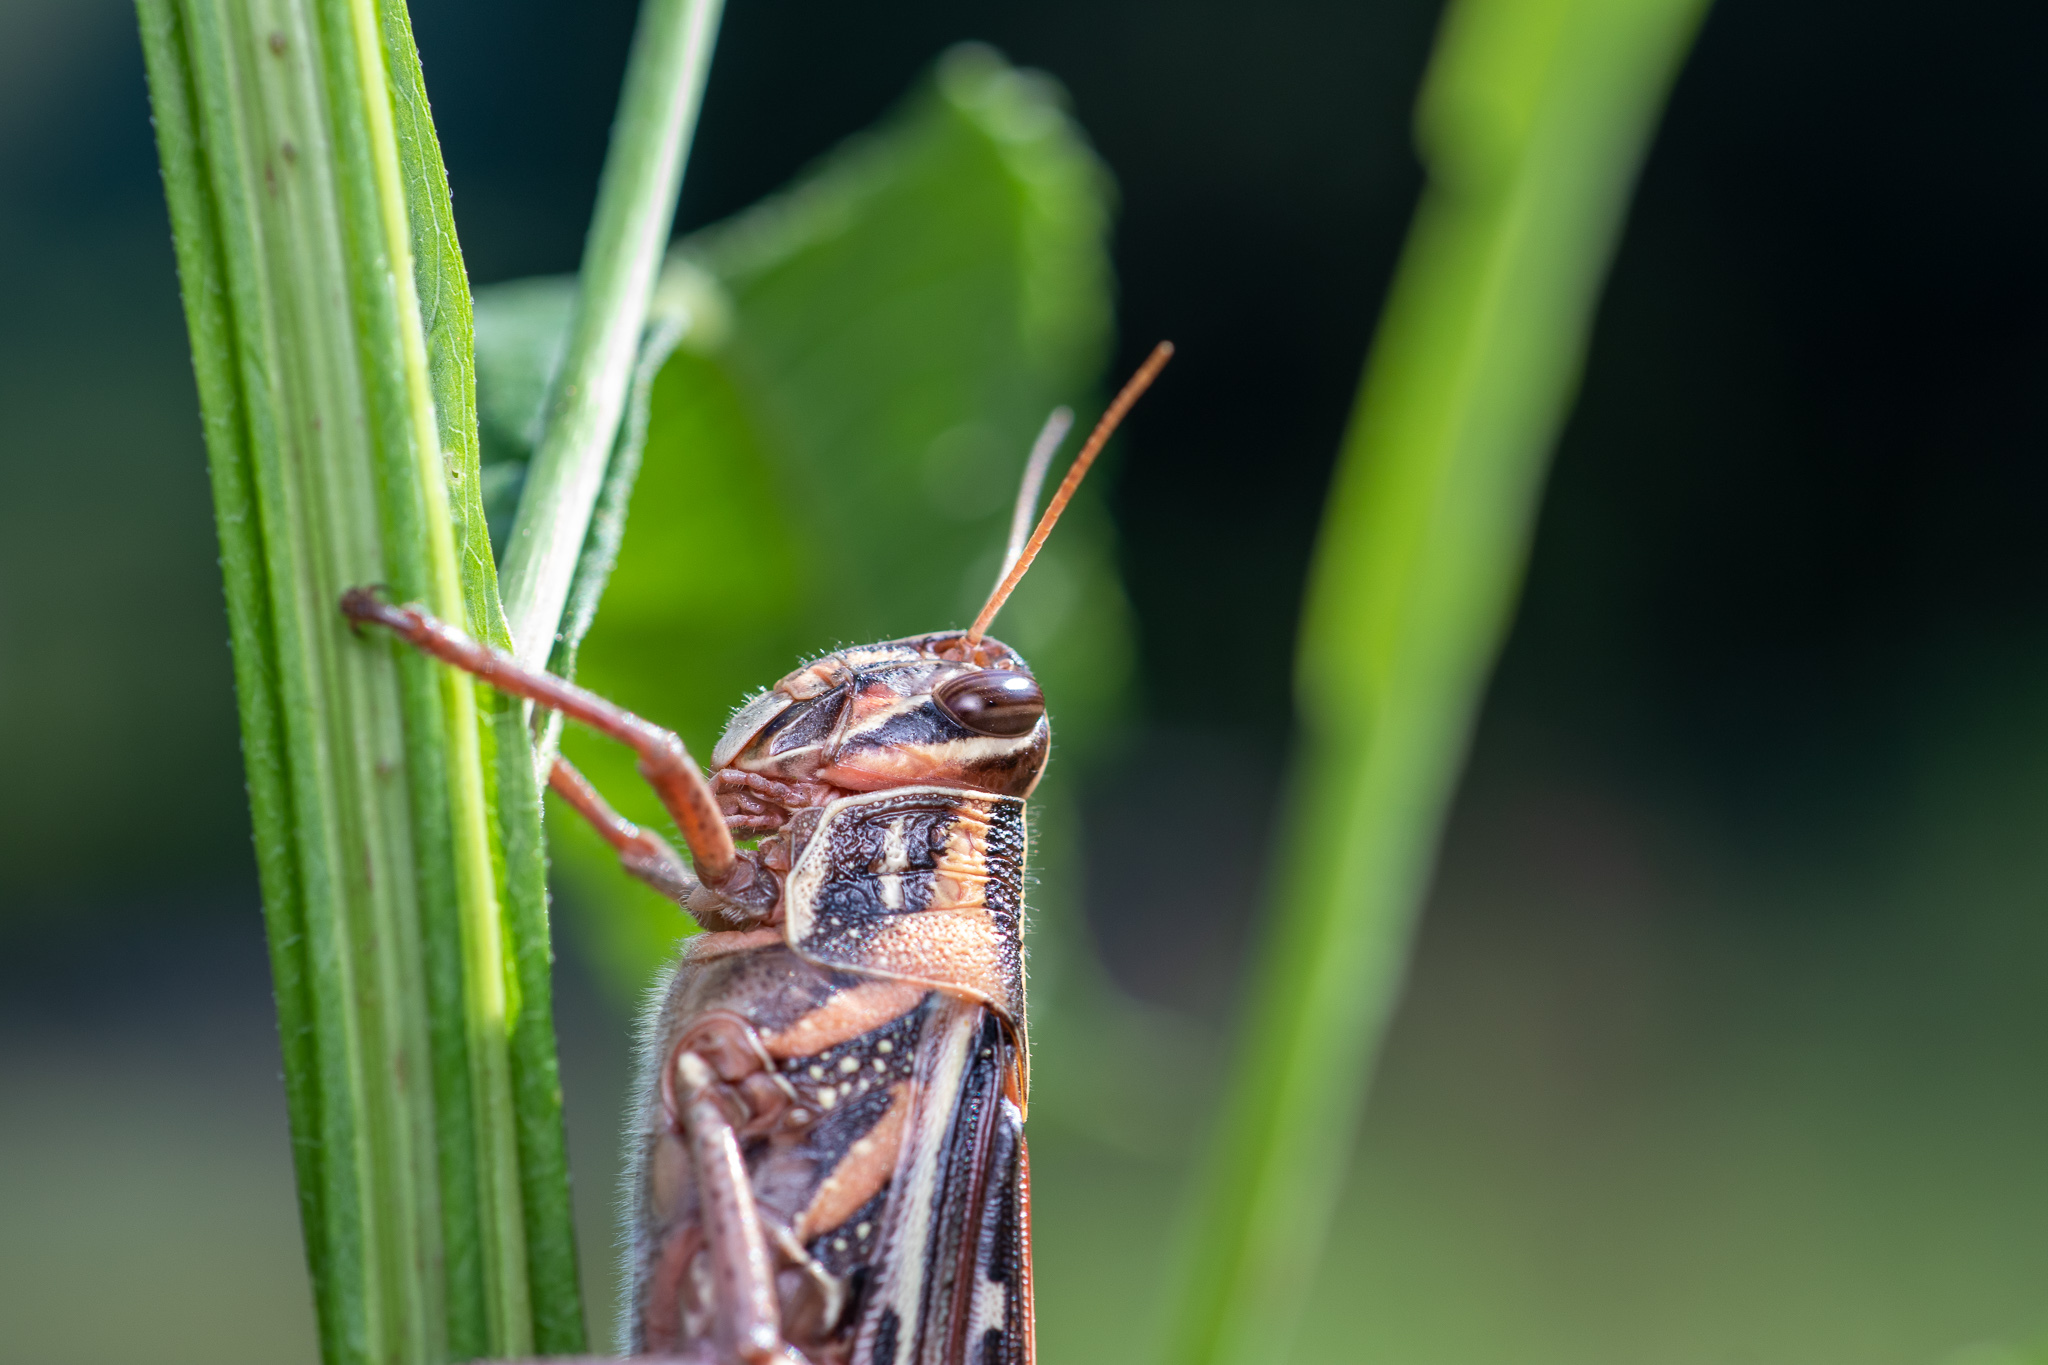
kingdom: Animalia
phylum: Arthropoda
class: Insecta
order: Orthoptera
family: Acrididae
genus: Schistocerca
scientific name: Schistocerca americana
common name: American bird locust
